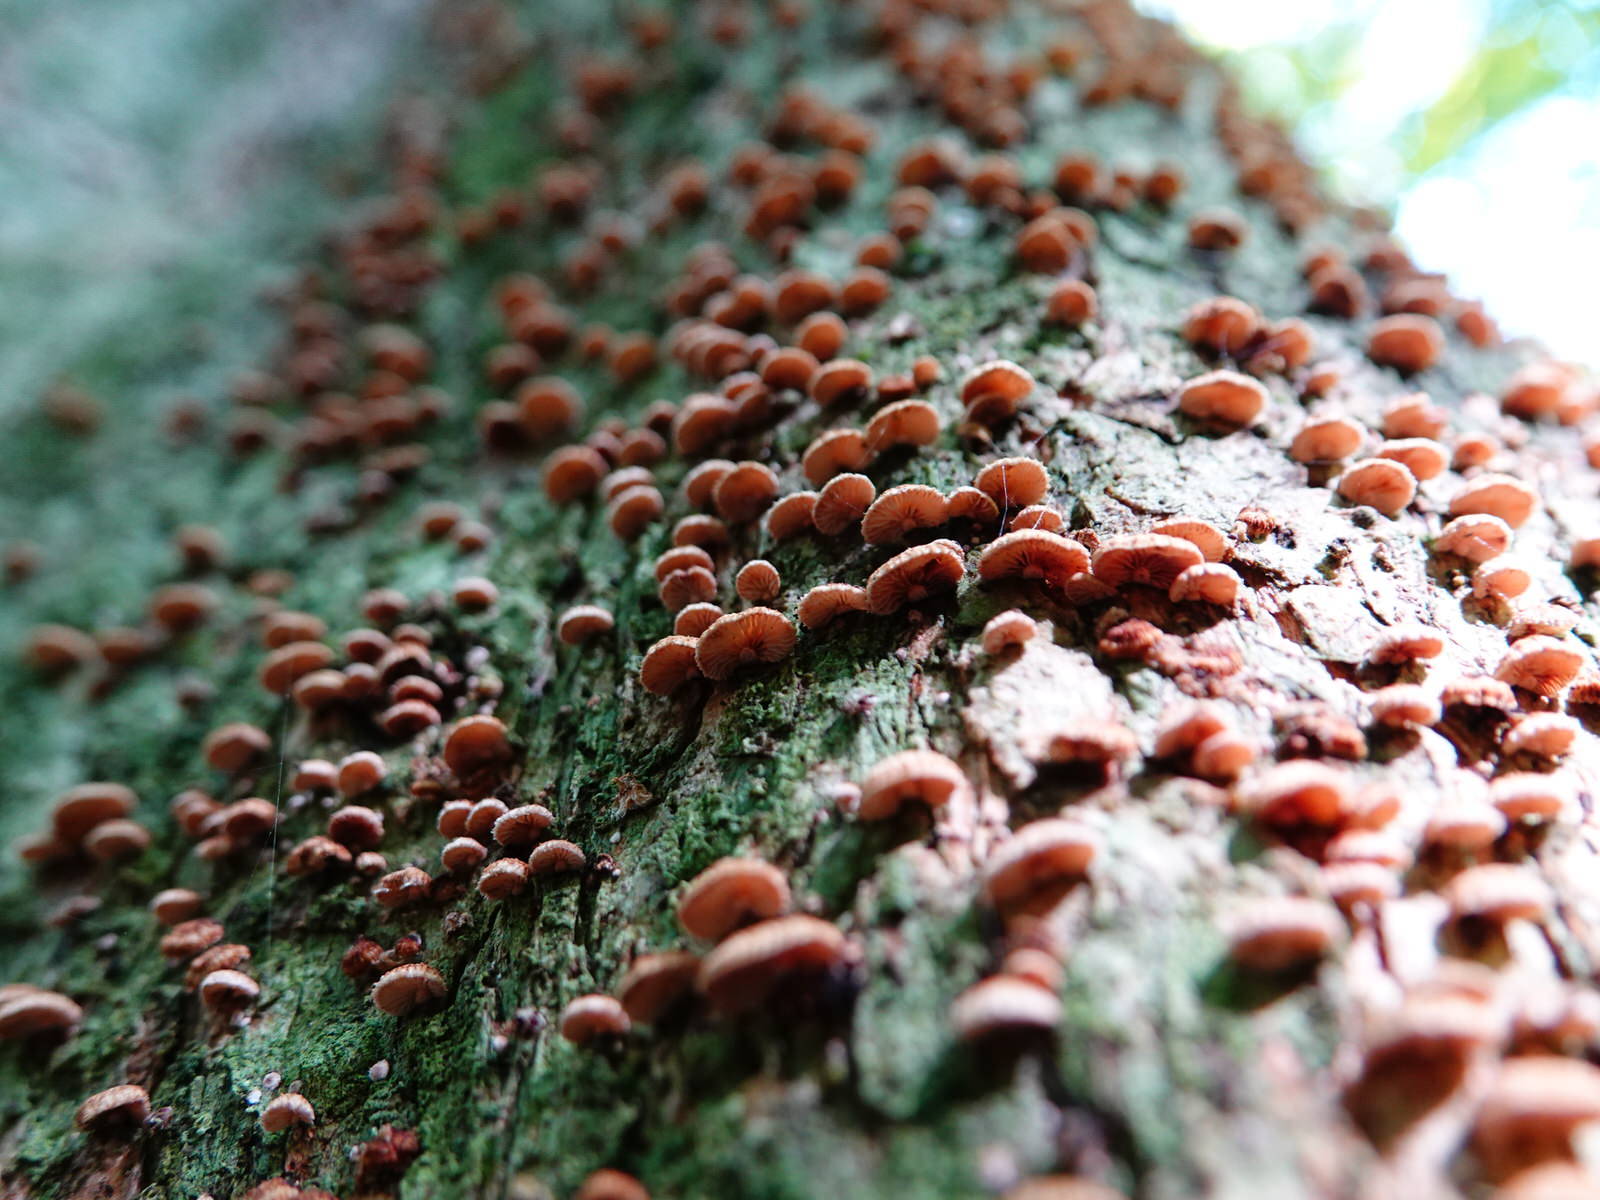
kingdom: Fungi
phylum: Basidiomycota
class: Agaricomycetes
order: Agaricales
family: Marasmiaceae
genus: Chaetocalathus
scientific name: Chaetocalathus cocciformis
